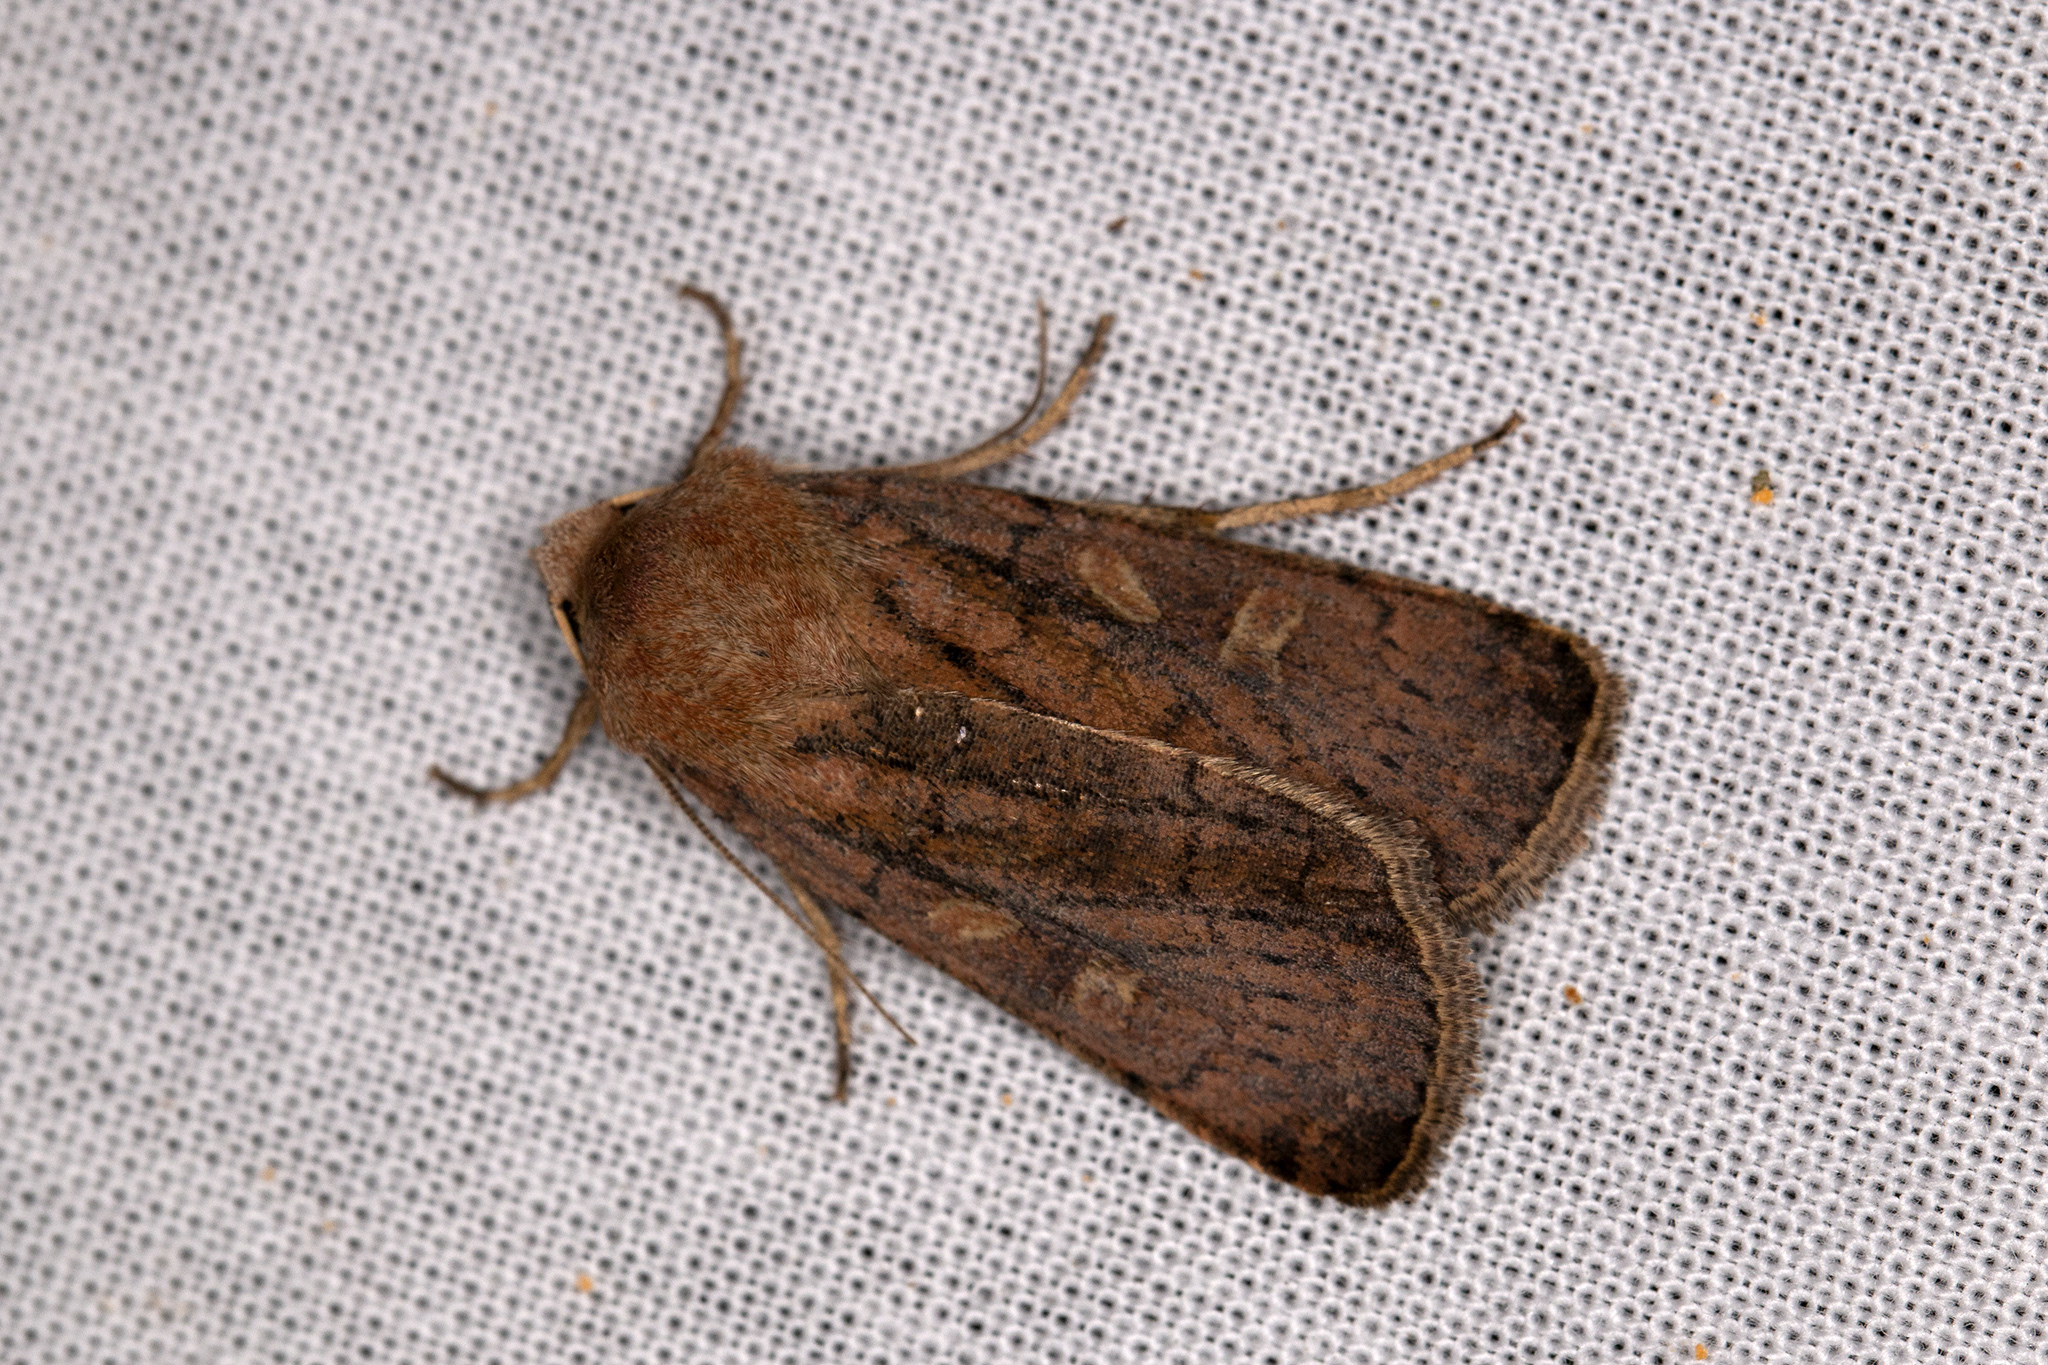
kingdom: Animalia
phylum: Arthropoda
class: Insecta
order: Lepidoptera
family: Noctuidae
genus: Xestia
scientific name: Xestia xanthographa
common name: Square-spot rustic
